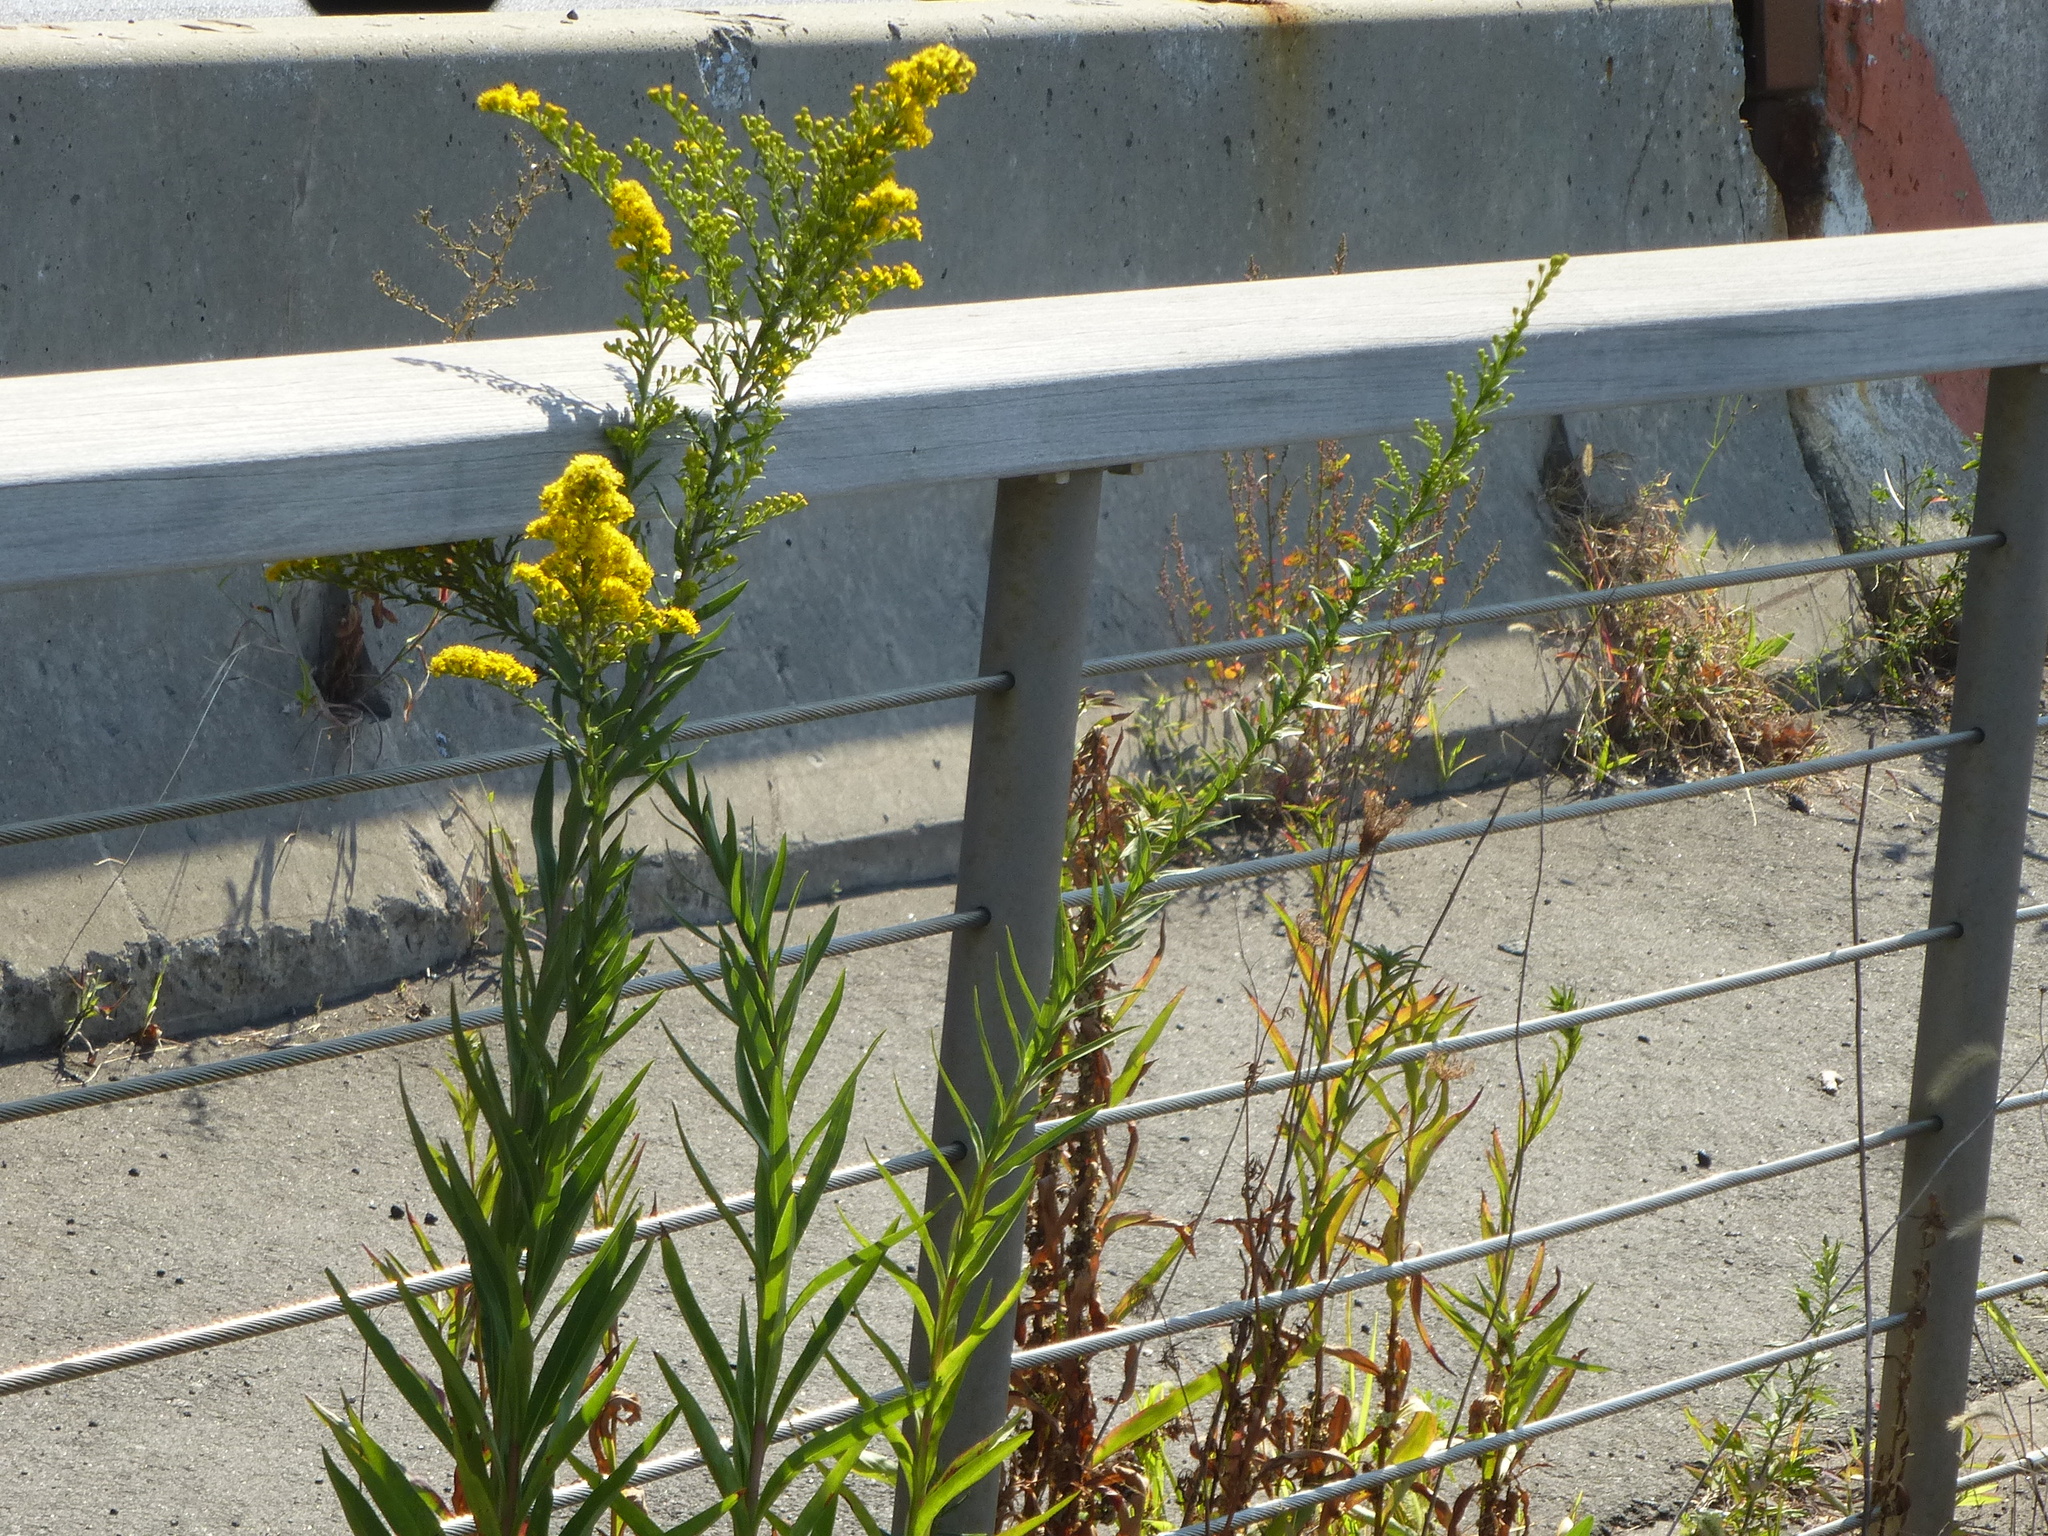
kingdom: Plantae
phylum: Tracheophyta
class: Magnoliopsida
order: Asterales
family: Asteraceae
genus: Solidago
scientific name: Solidago sempervirens
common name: Salt-marsh goldenrod
